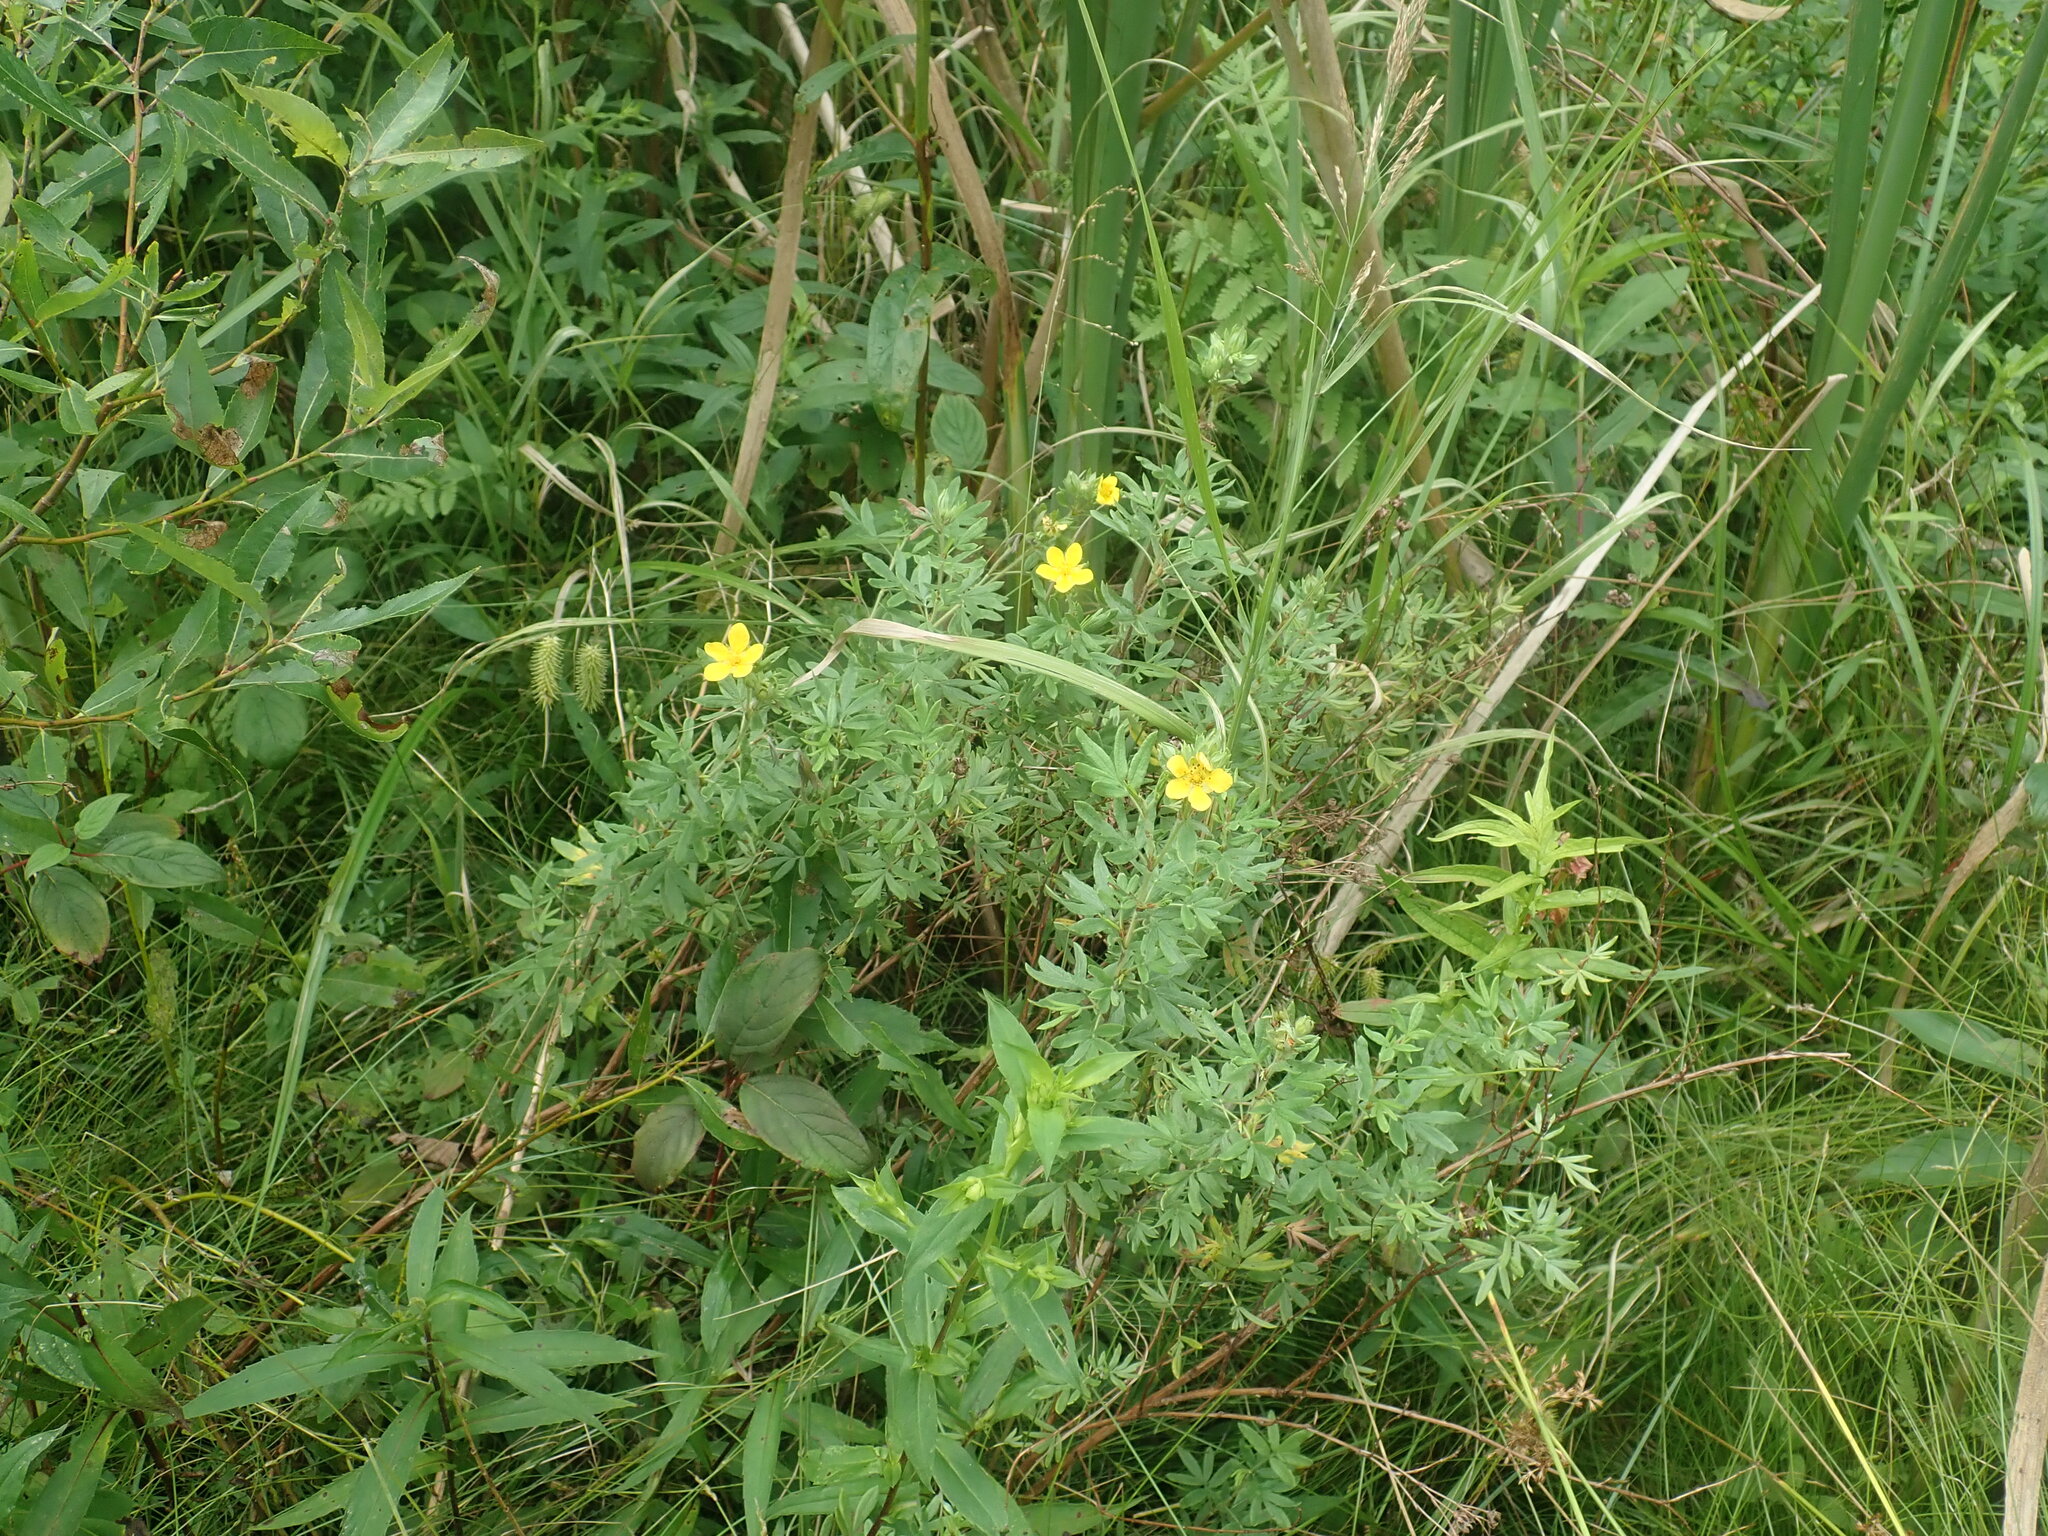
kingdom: Plantae
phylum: Tracheophyta
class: Magnoliopsida
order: Rosales
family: Rosaceae
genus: Dasiphora
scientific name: Dasiphora fruticosa
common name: Shrubby cinquefoil
